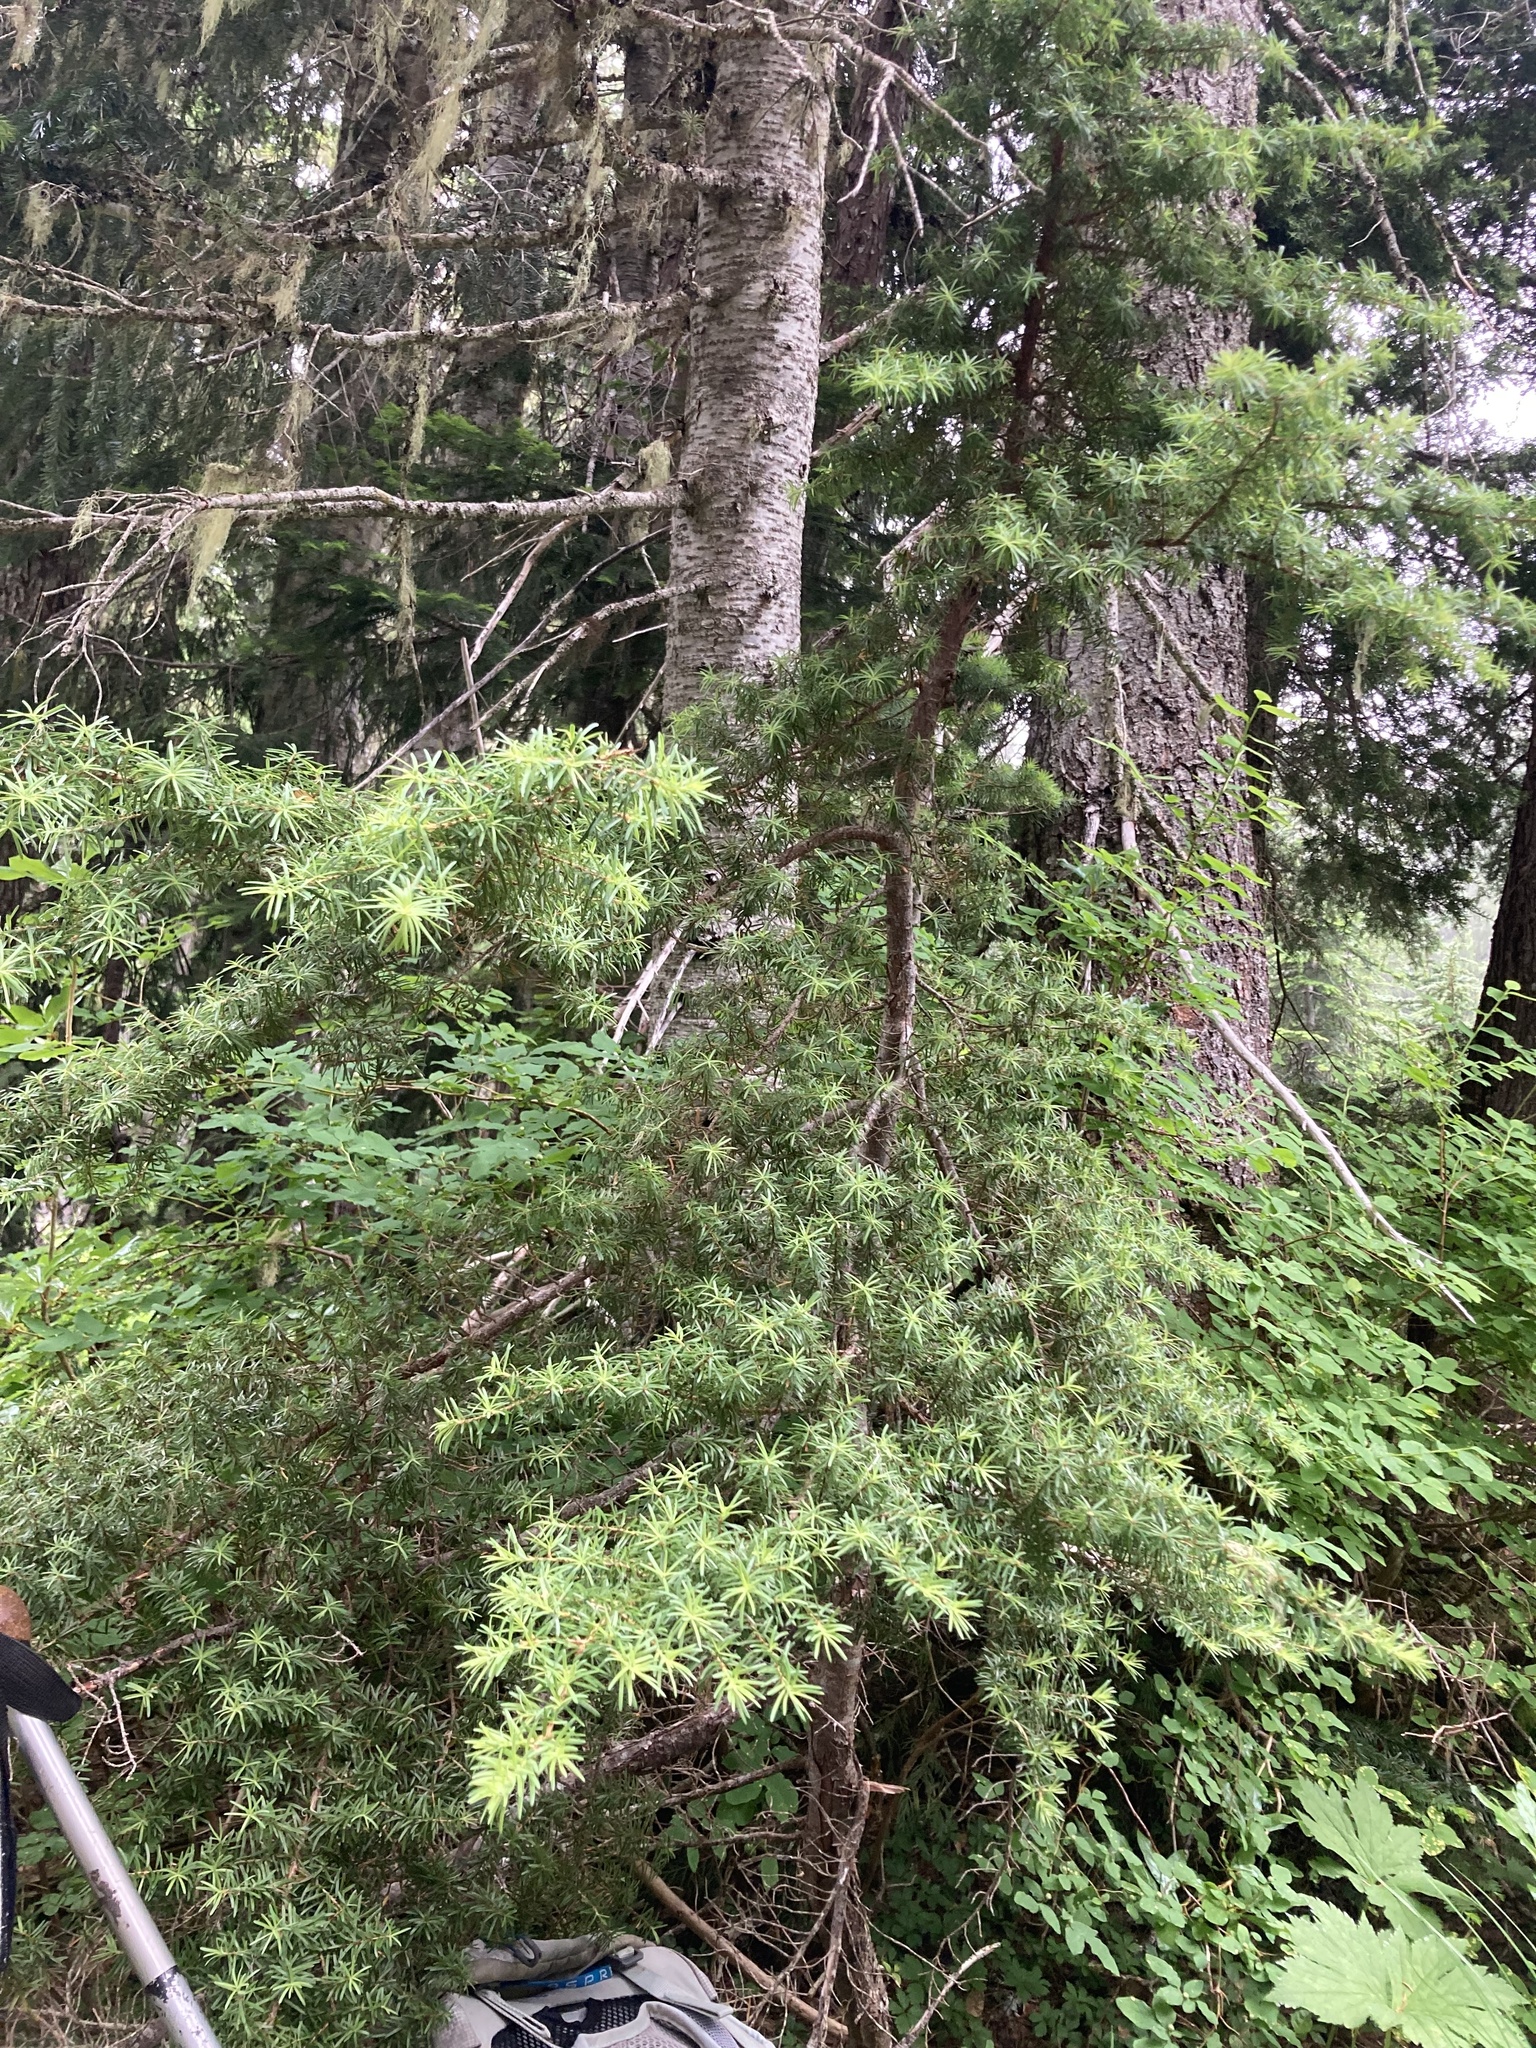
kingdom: Plantae
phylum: Tracheophyta
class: Pinopsida
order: Pinales
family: Pinaceae
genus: Tsuga
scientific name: Tsuga mertensiana
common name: Mountain hemlock
